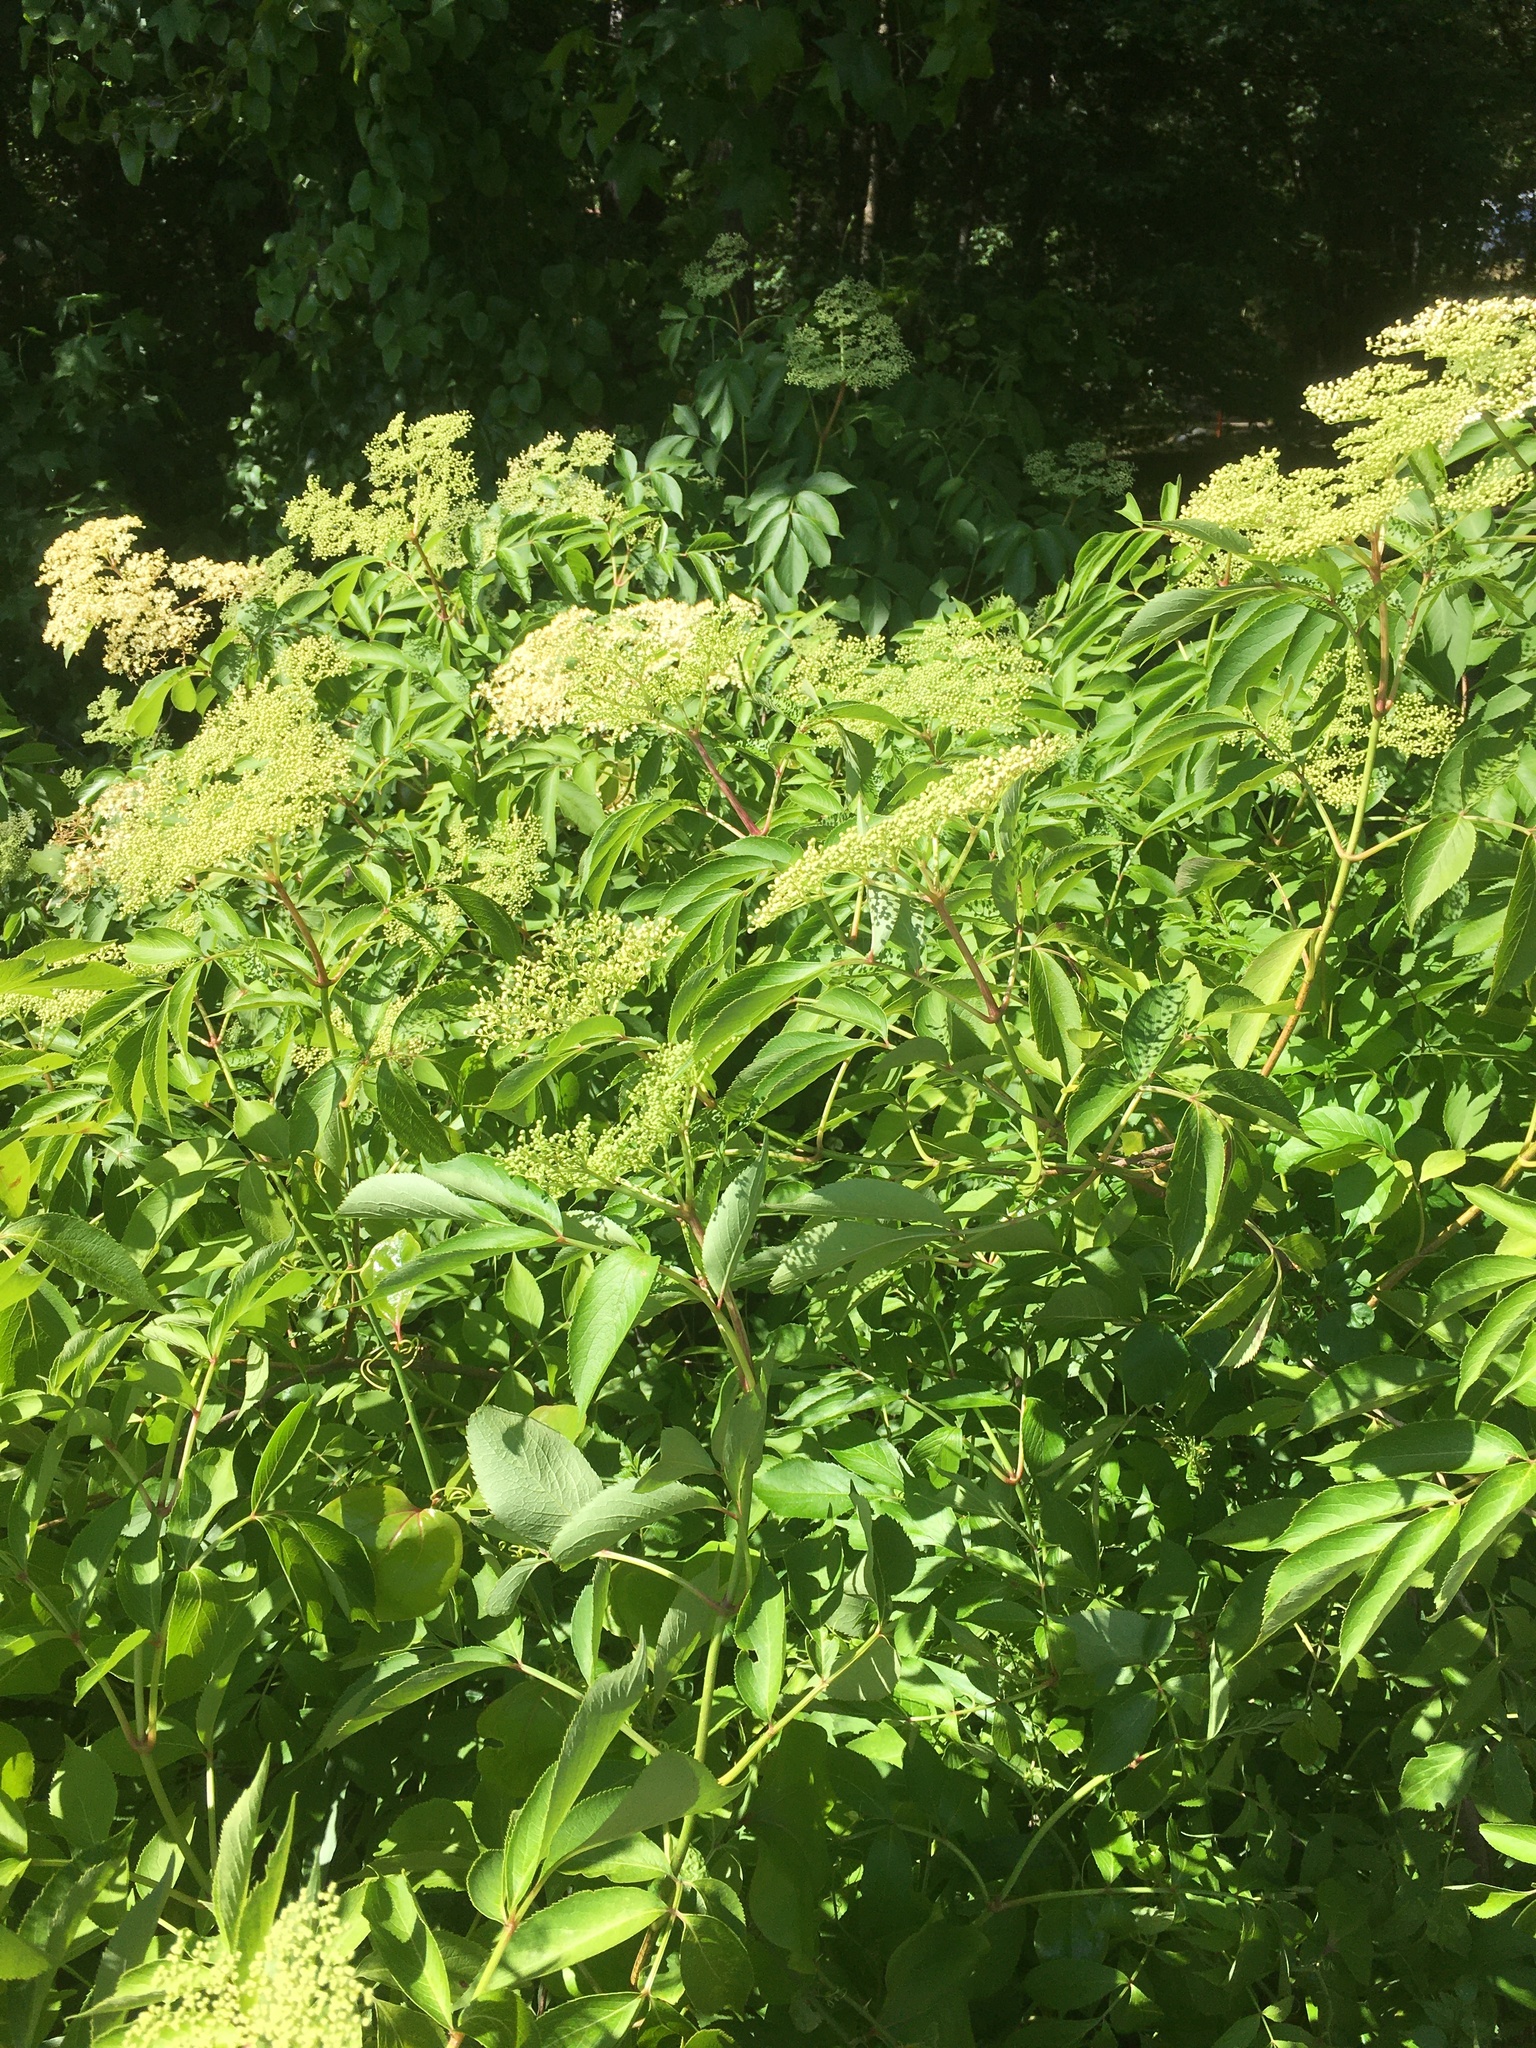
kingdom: Plantae
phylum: Tracheophyta
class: Magnoliopsida
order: Dipsacales
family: Viburnaceae
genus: Sambucus
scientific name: Sambucus canadensis
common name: American elder
